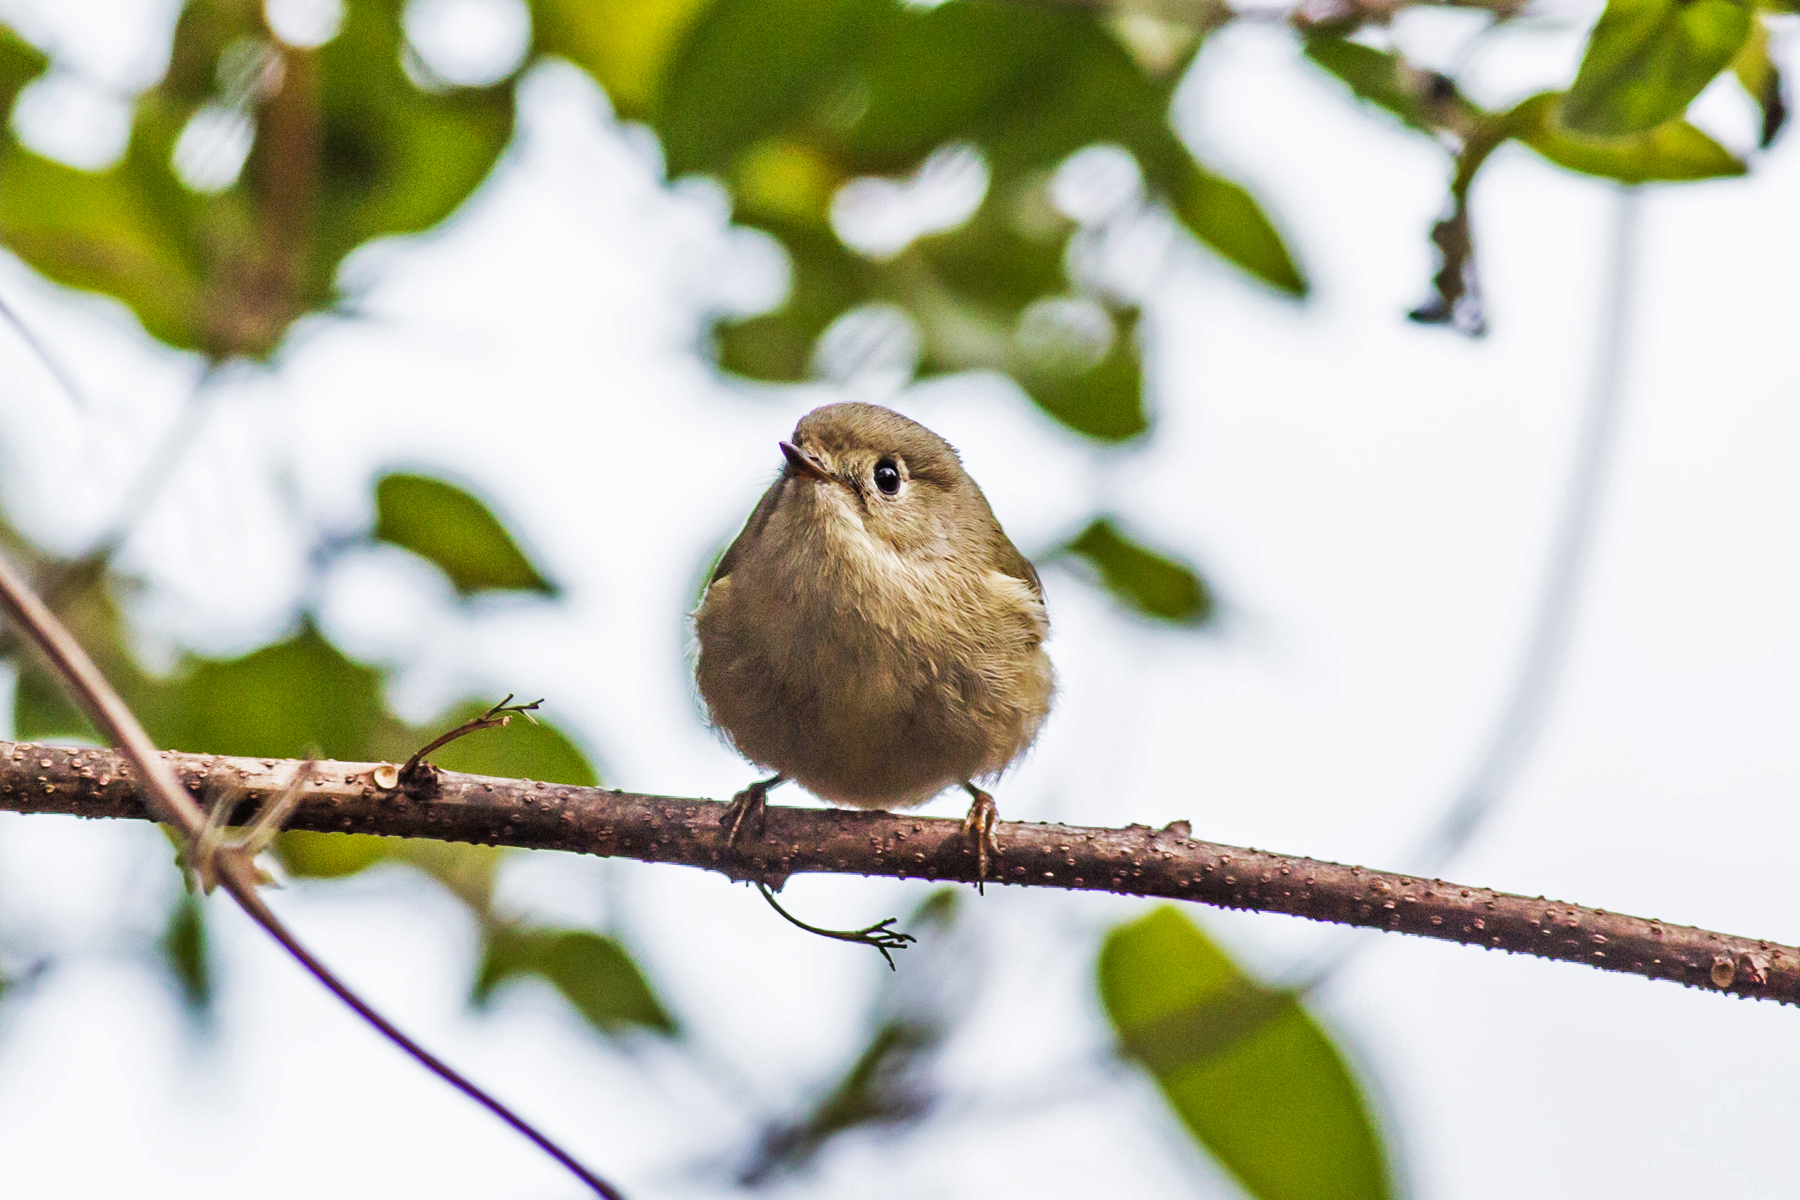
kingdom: Animalia
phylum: Chordata
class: Aves
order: Passeriformes
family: Regulidae
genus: Regulus
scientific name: Regulus calendula
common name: Ruby-crowned kinglet
